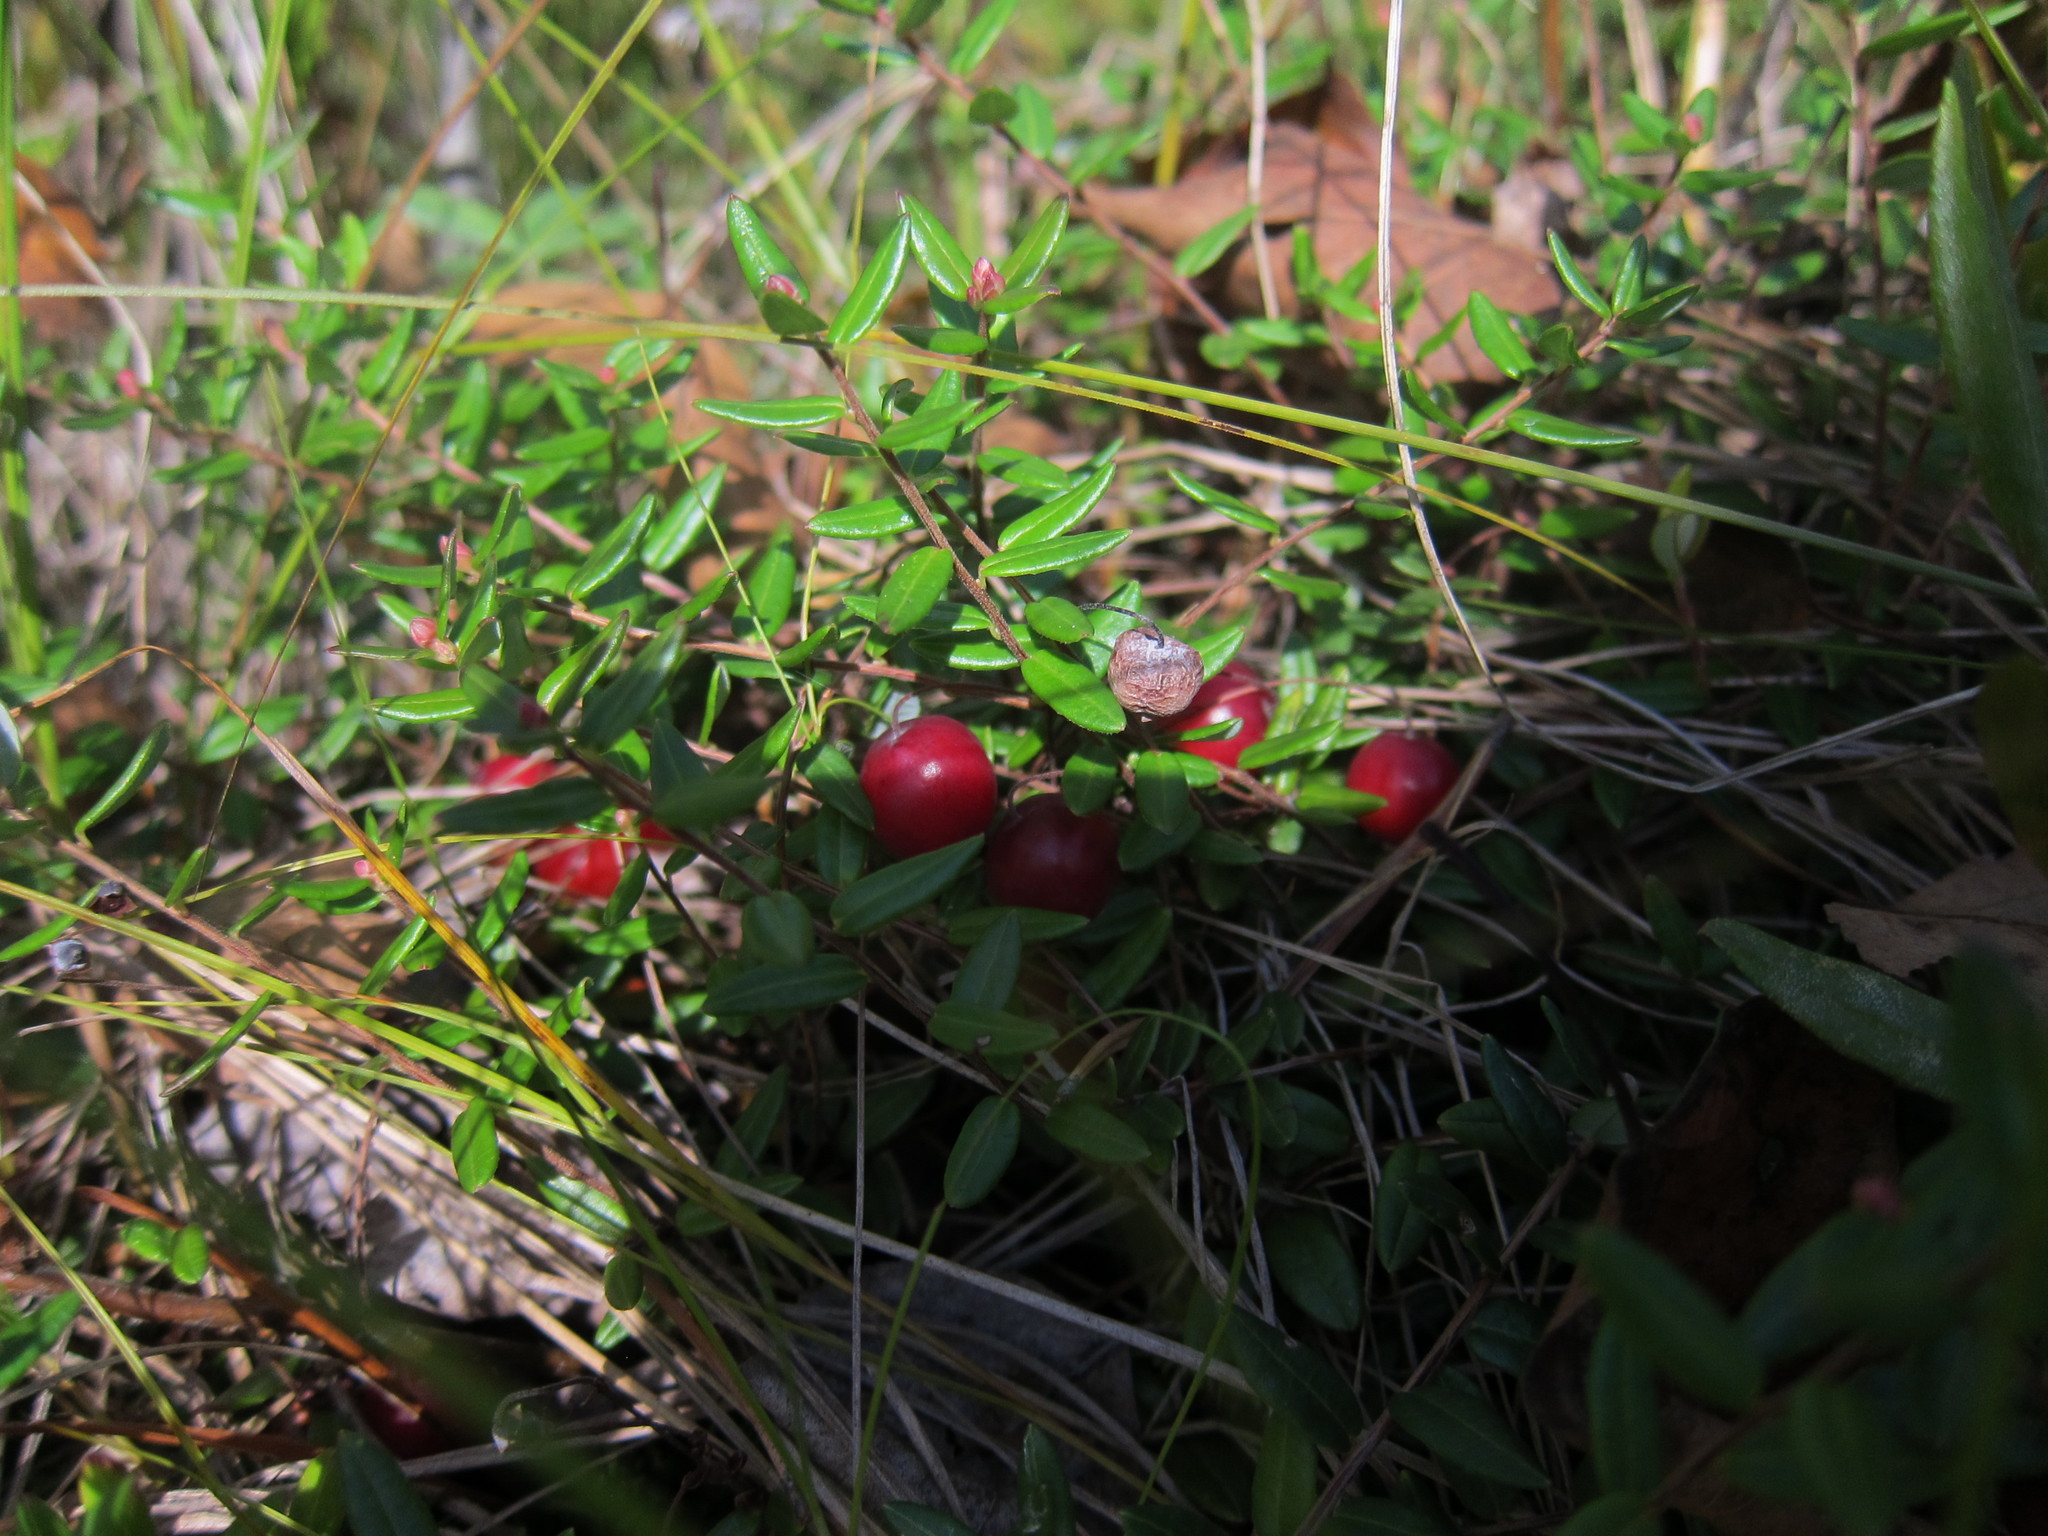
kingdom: Plantae
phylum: Tracheophyta
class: Magnoliopsida
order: Ericales
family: Ericaceae
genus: Vaccinium
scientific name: Vaccinium oxycoccos
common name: Cranberry
